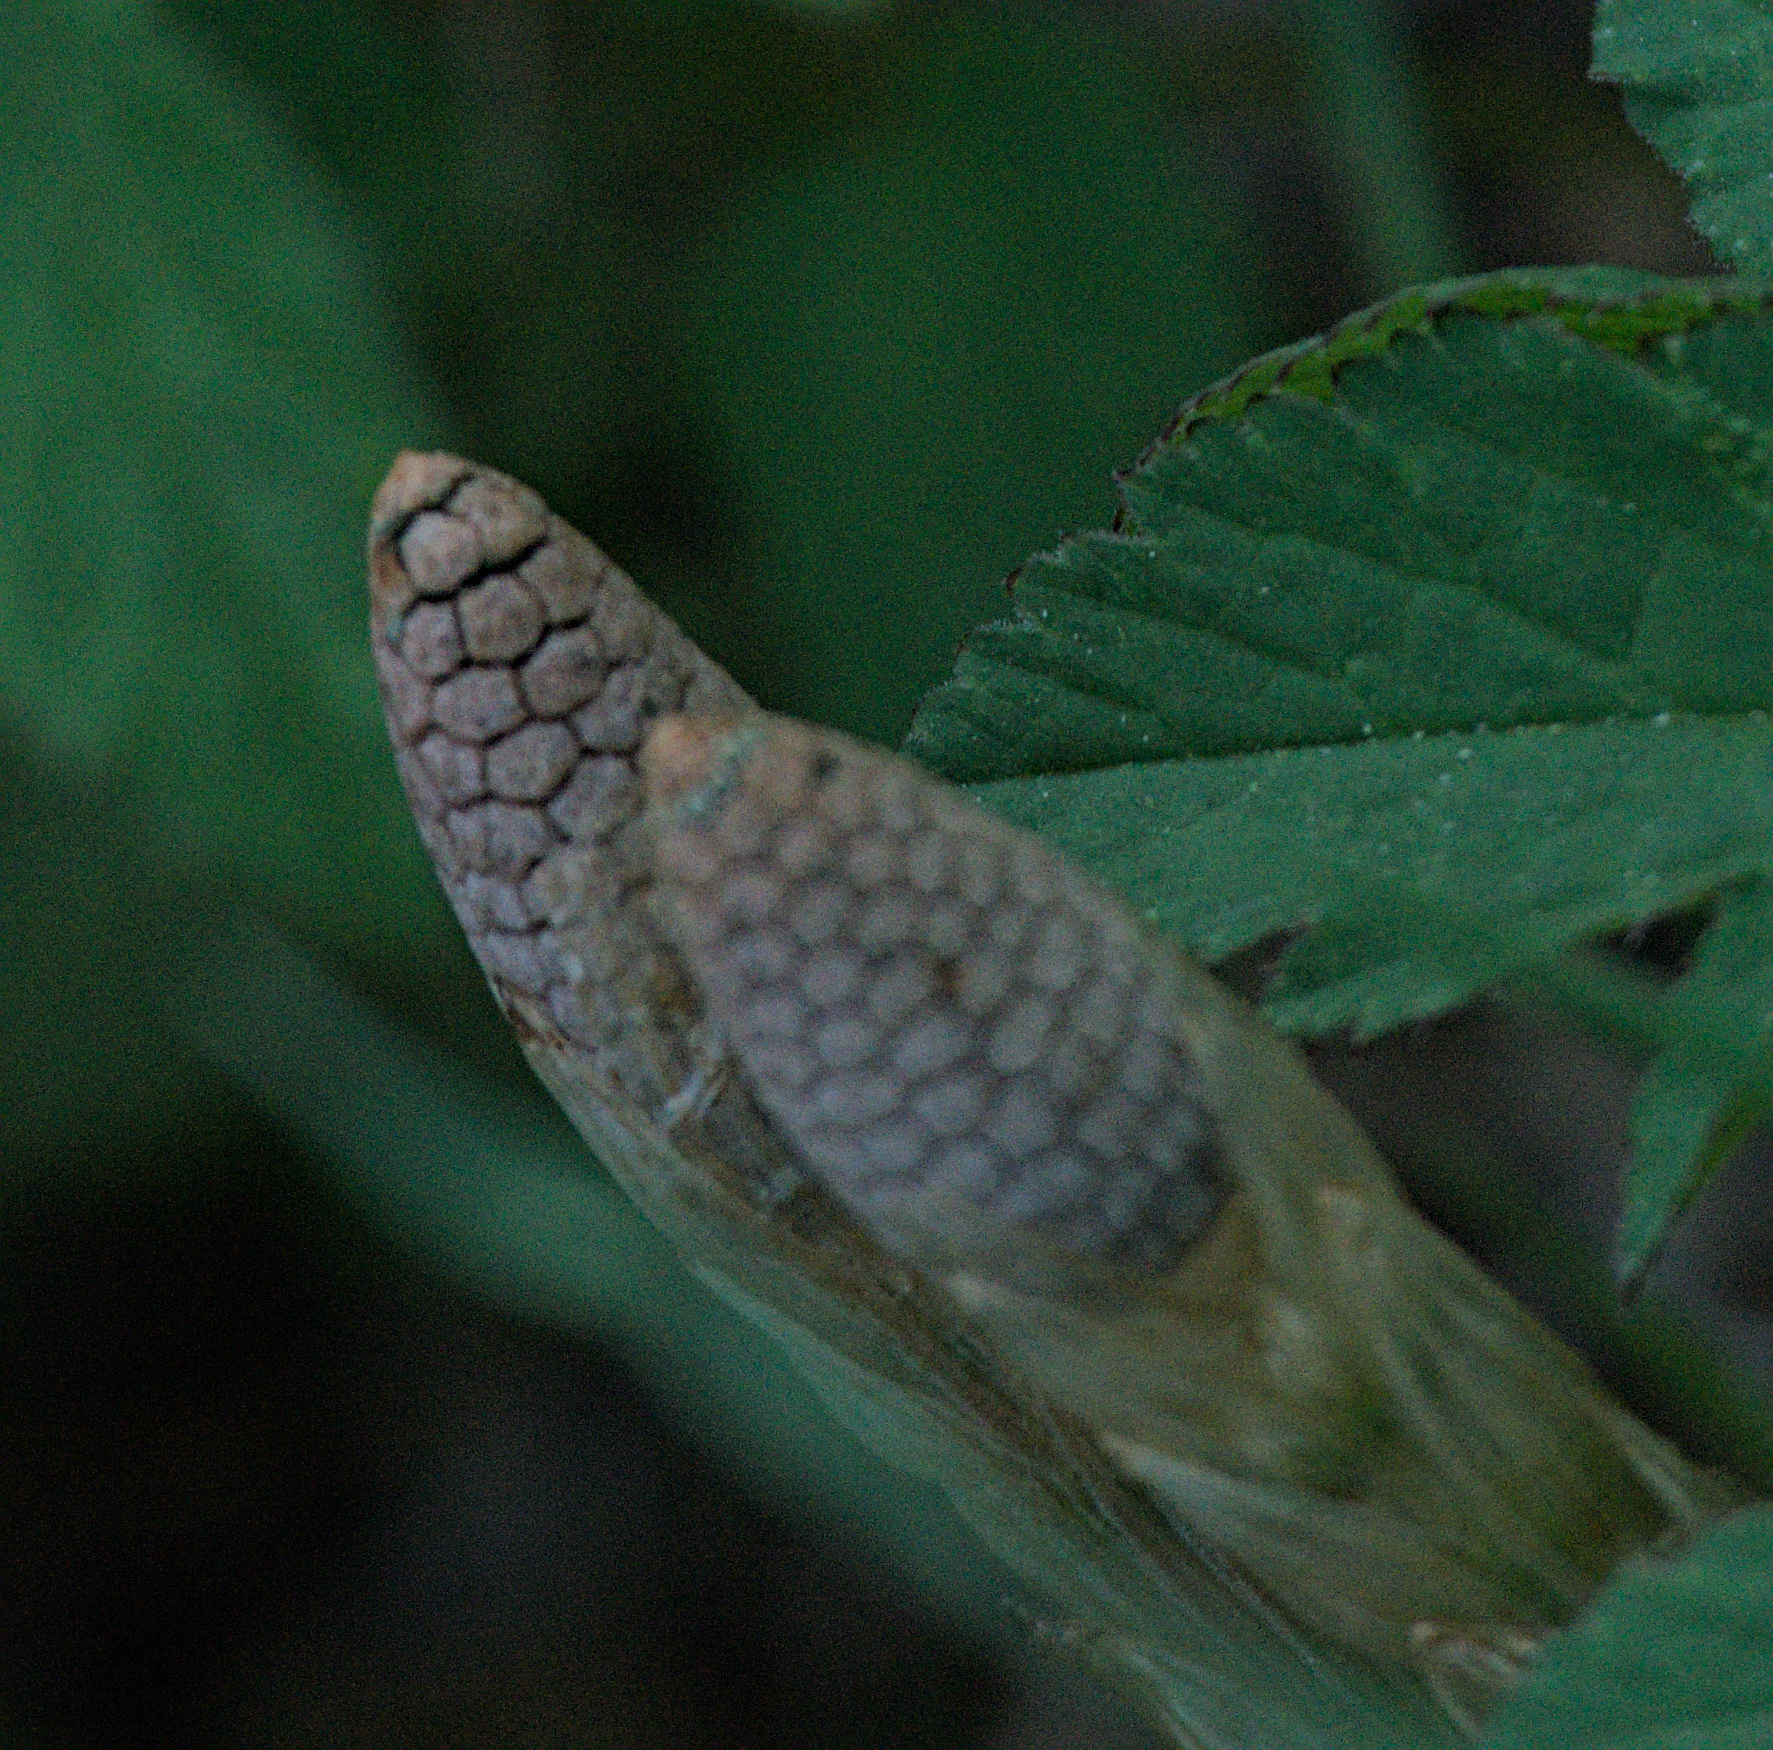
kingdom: Plantae
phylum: Tracheophyta
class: Polypodiopsida
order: Equisetales
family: Equisetaceae
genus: Equisetum
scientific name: Equisetum sylvaticum
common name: Wood horsetail
